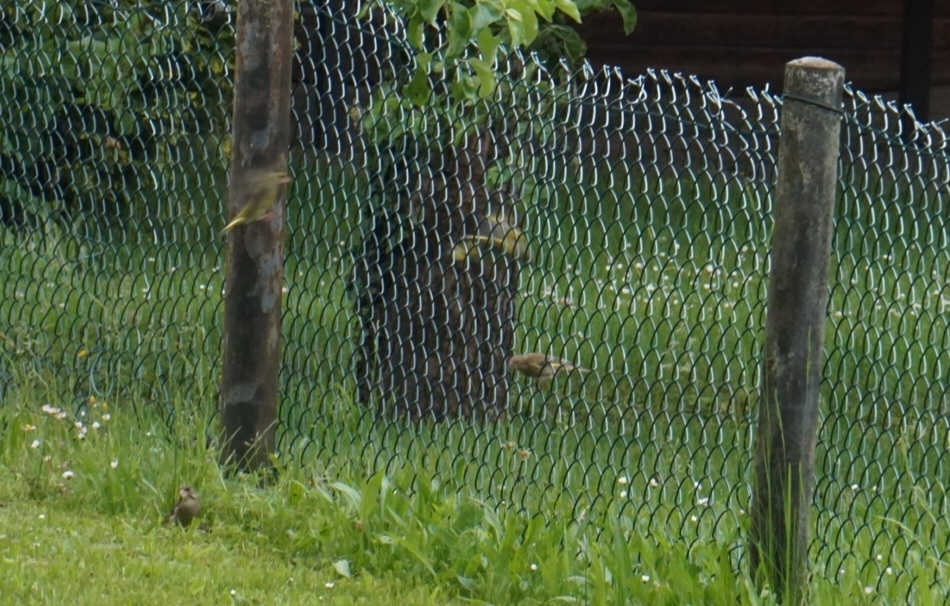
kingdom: Plantae
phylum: Tracheophyta
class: Liliopsida
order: Poales
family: Poaceae
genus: Chloris
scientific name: Chloris chloris
